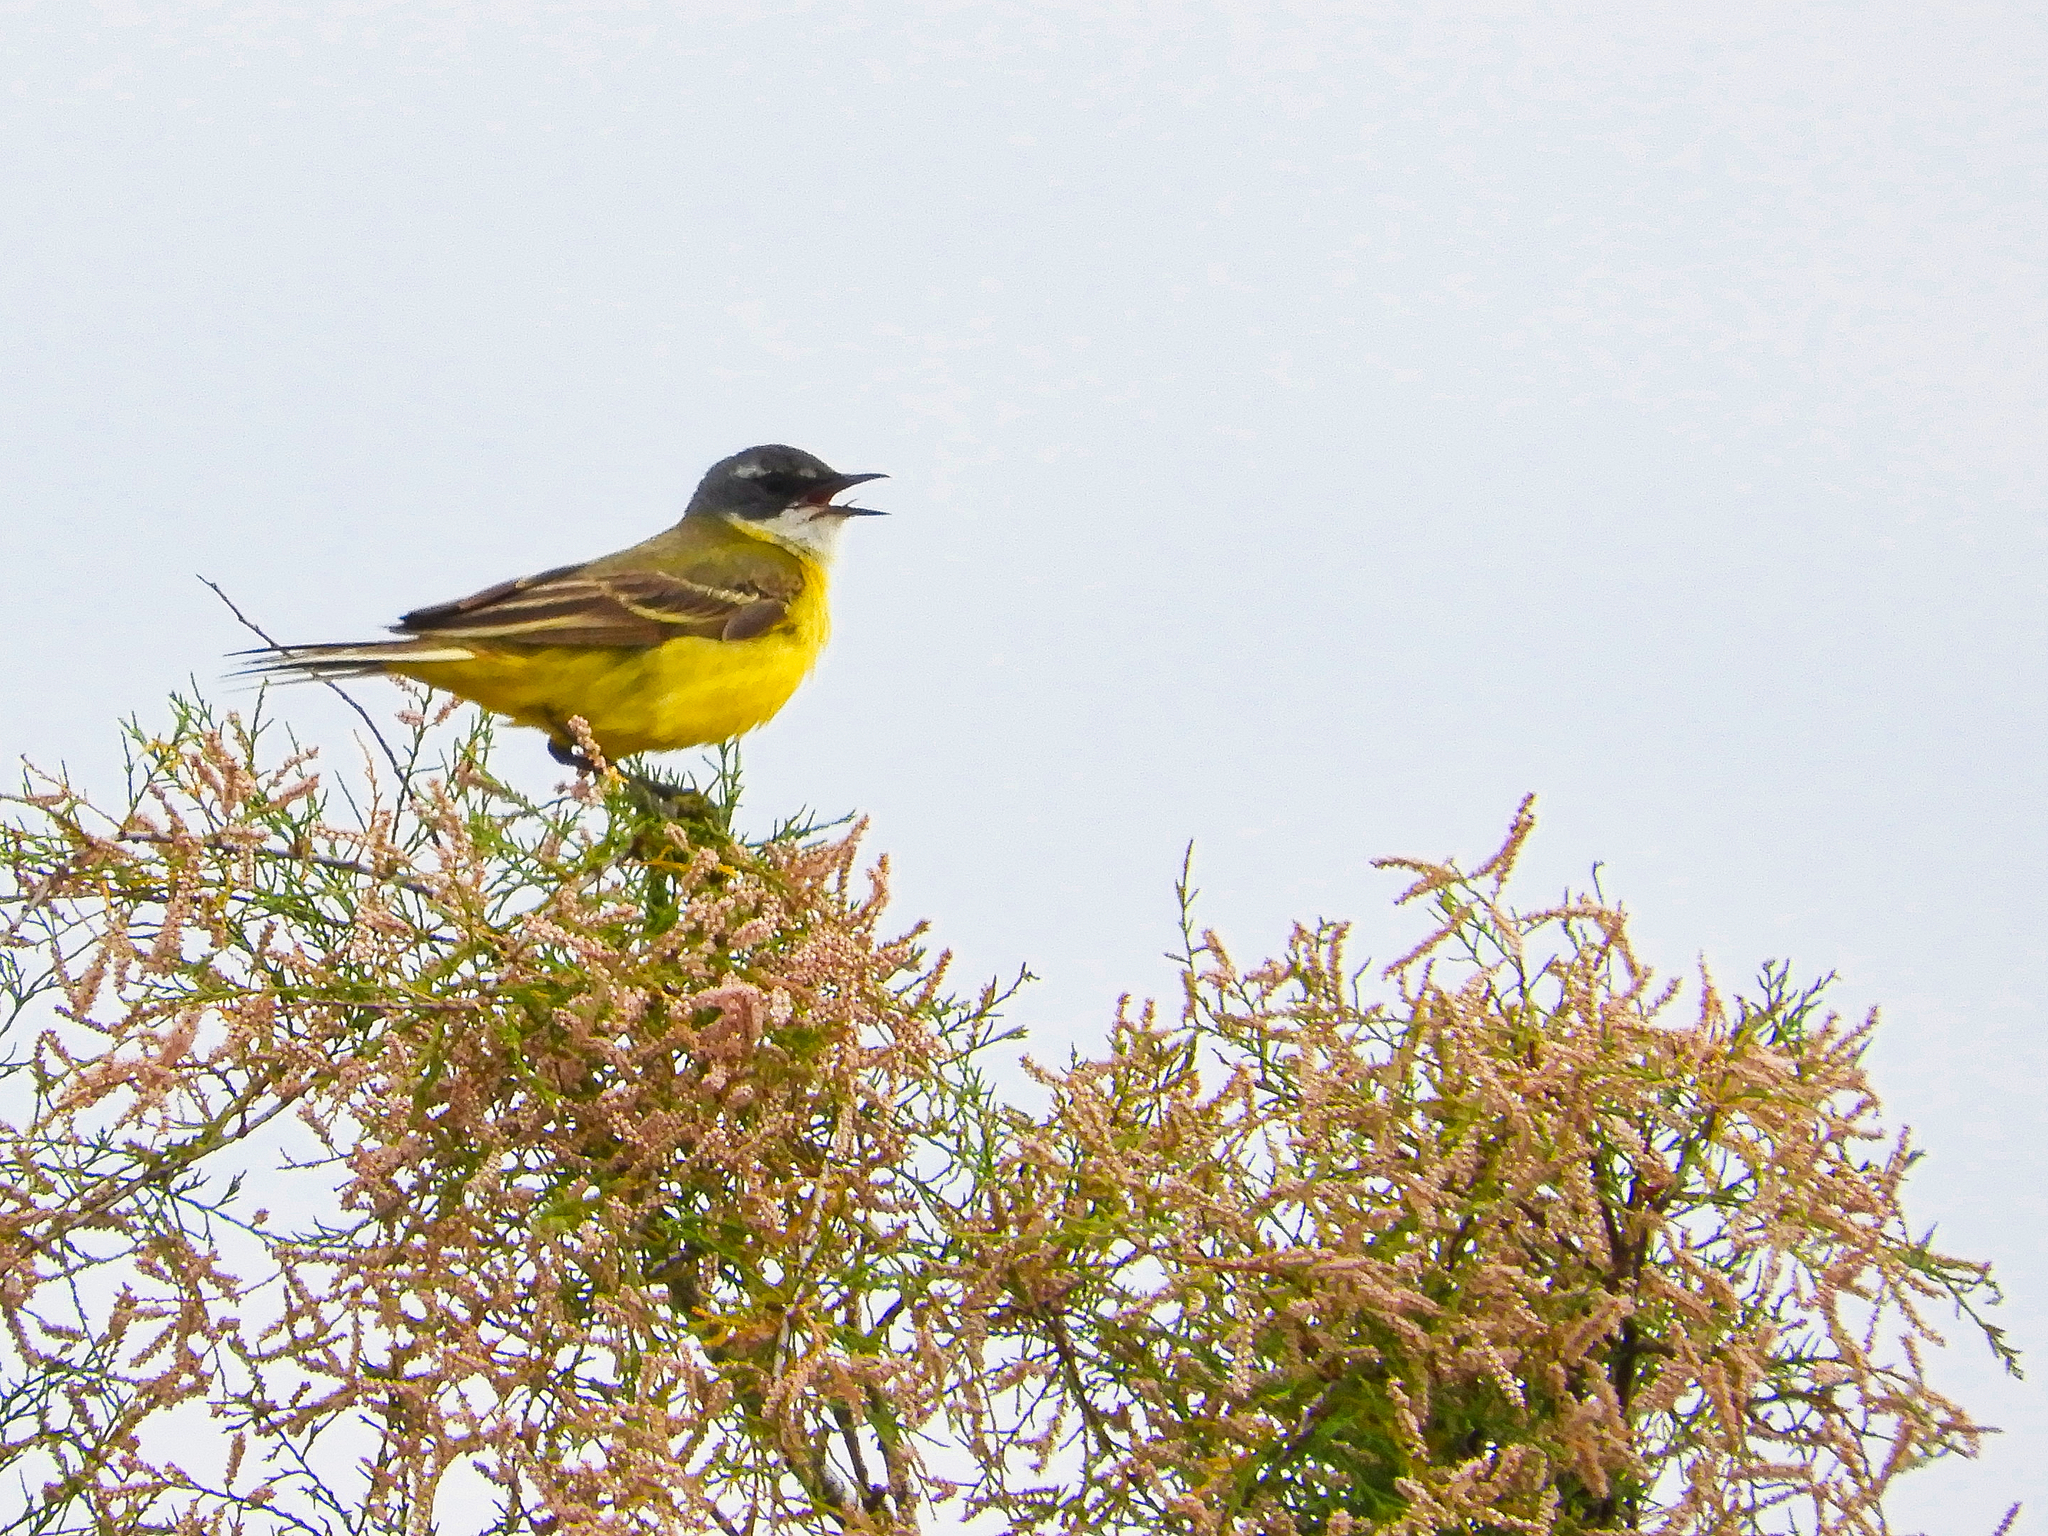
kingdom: Animalia
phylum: Chordata
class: Aves
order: Passeriformes
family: Motacillidae
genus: Motacilla
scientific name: Motacilla flava
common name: Western yellow wagtail
